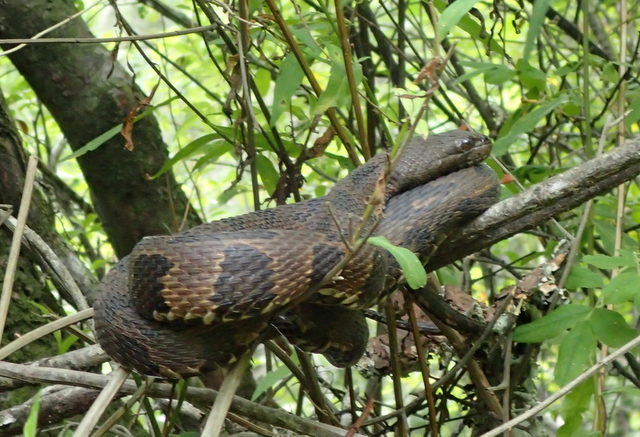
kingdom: Animalia
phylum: Chordata
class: Squamata
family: Colubridae
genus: Nerodia
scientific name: Nerodia taxispilota
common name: Brown water snake
